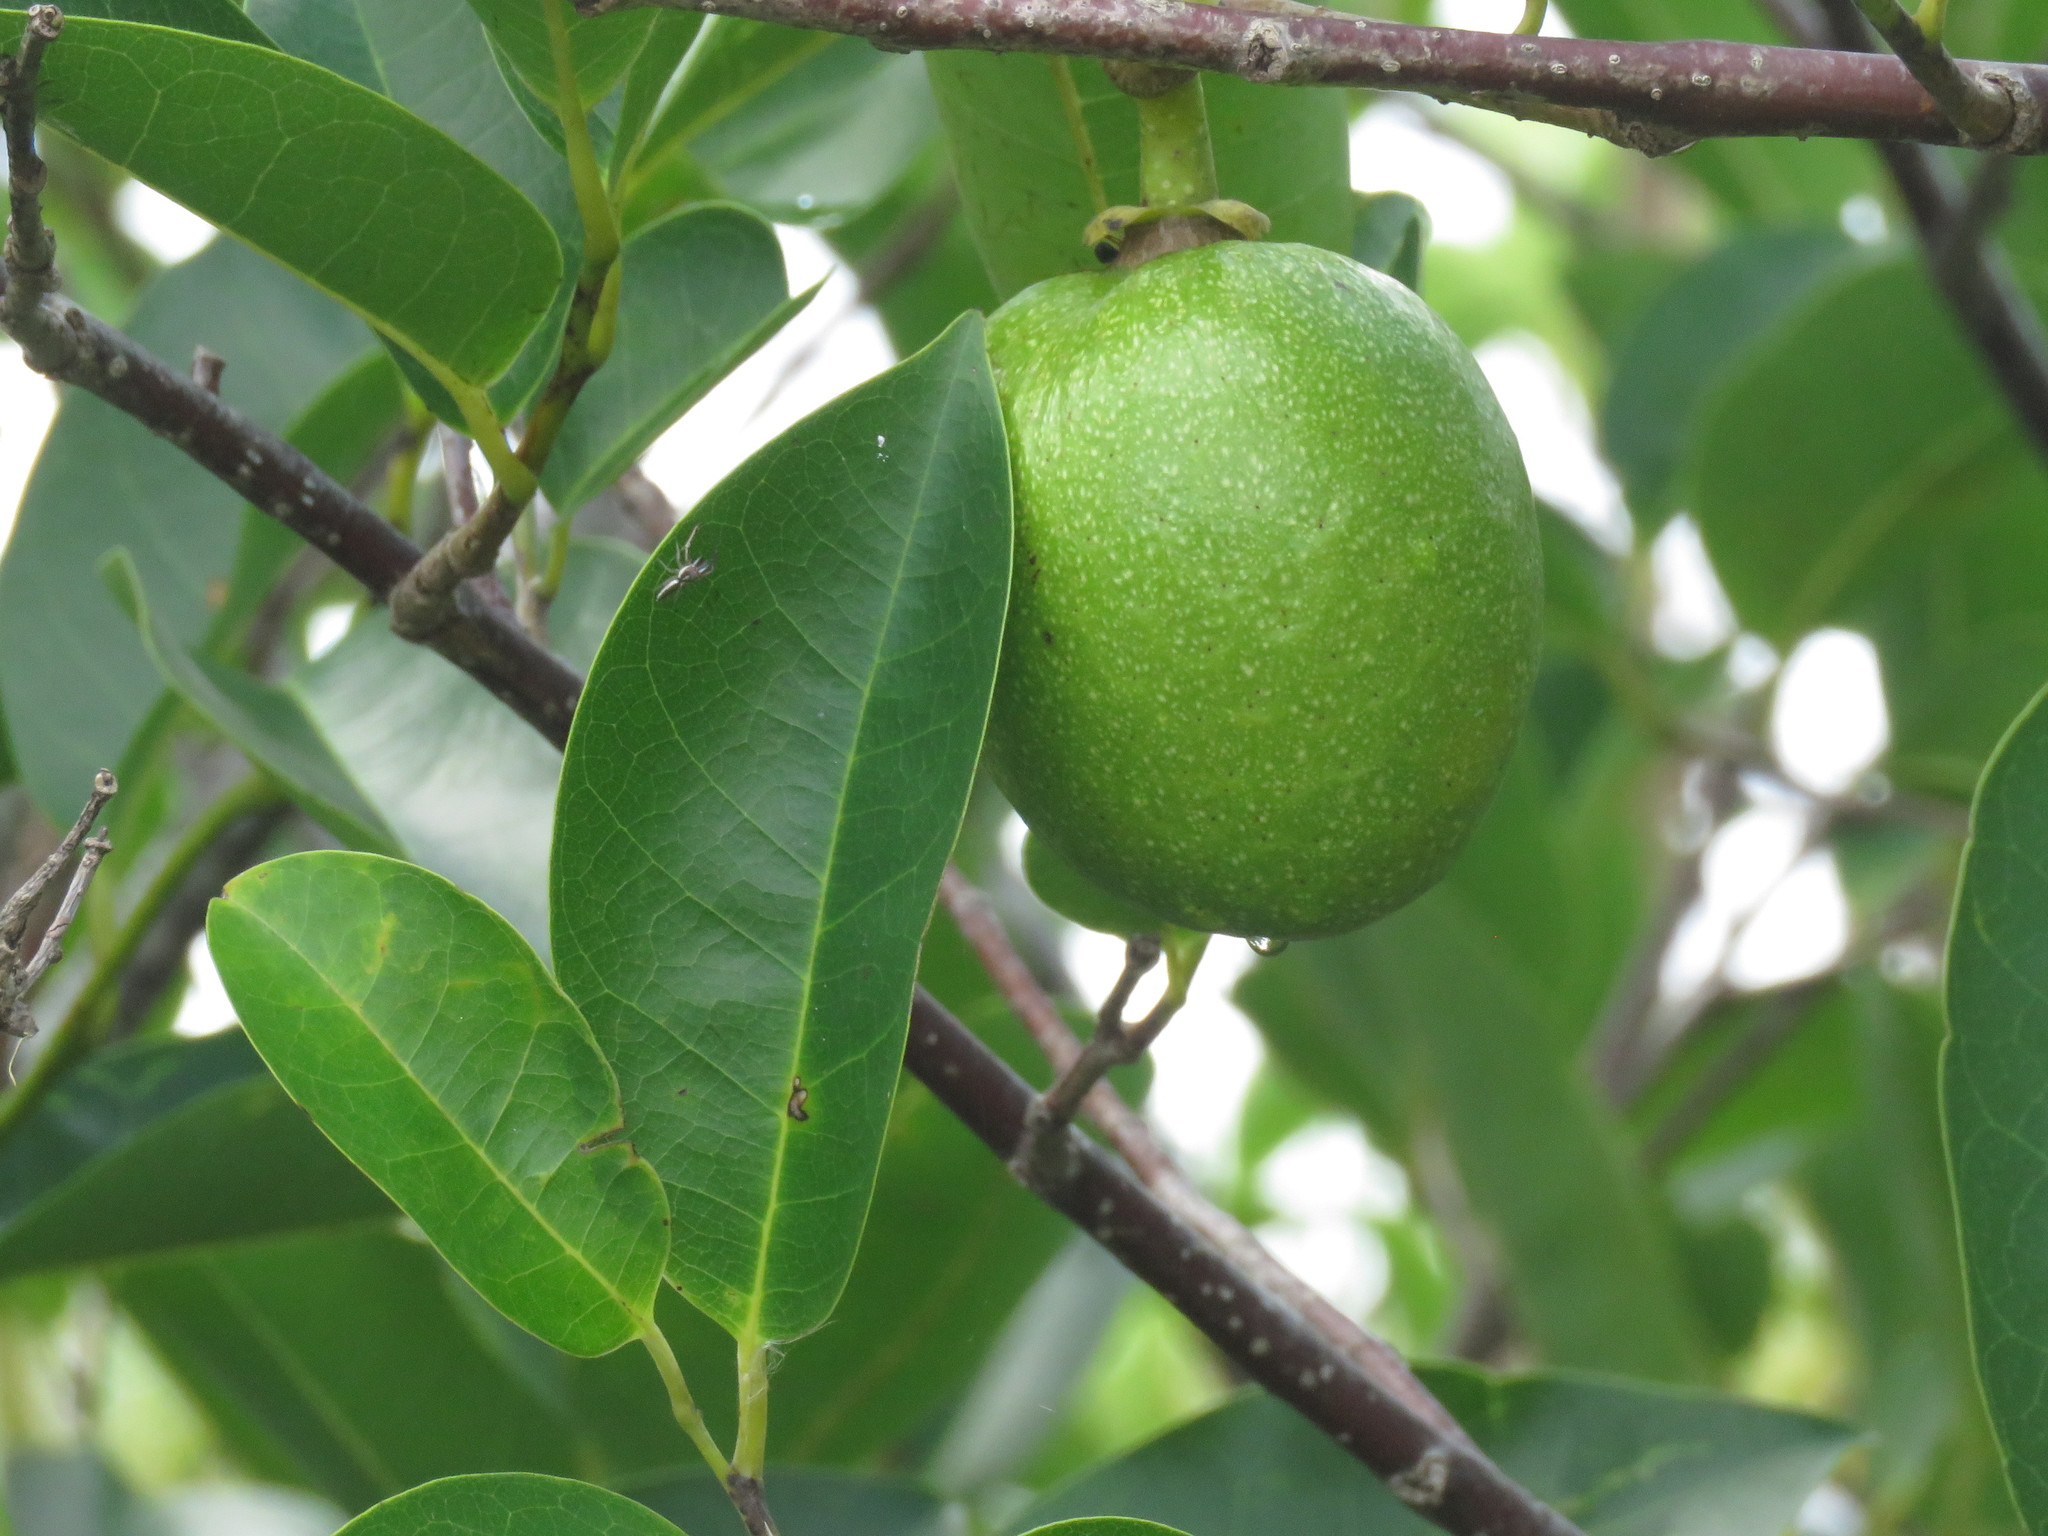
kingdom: Plantae
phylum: Tracheophyta
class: Magnoliopsida
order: Magnoliales
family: Annonaceae
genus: Annona
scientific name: Annona glabra
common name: Monkey apple
